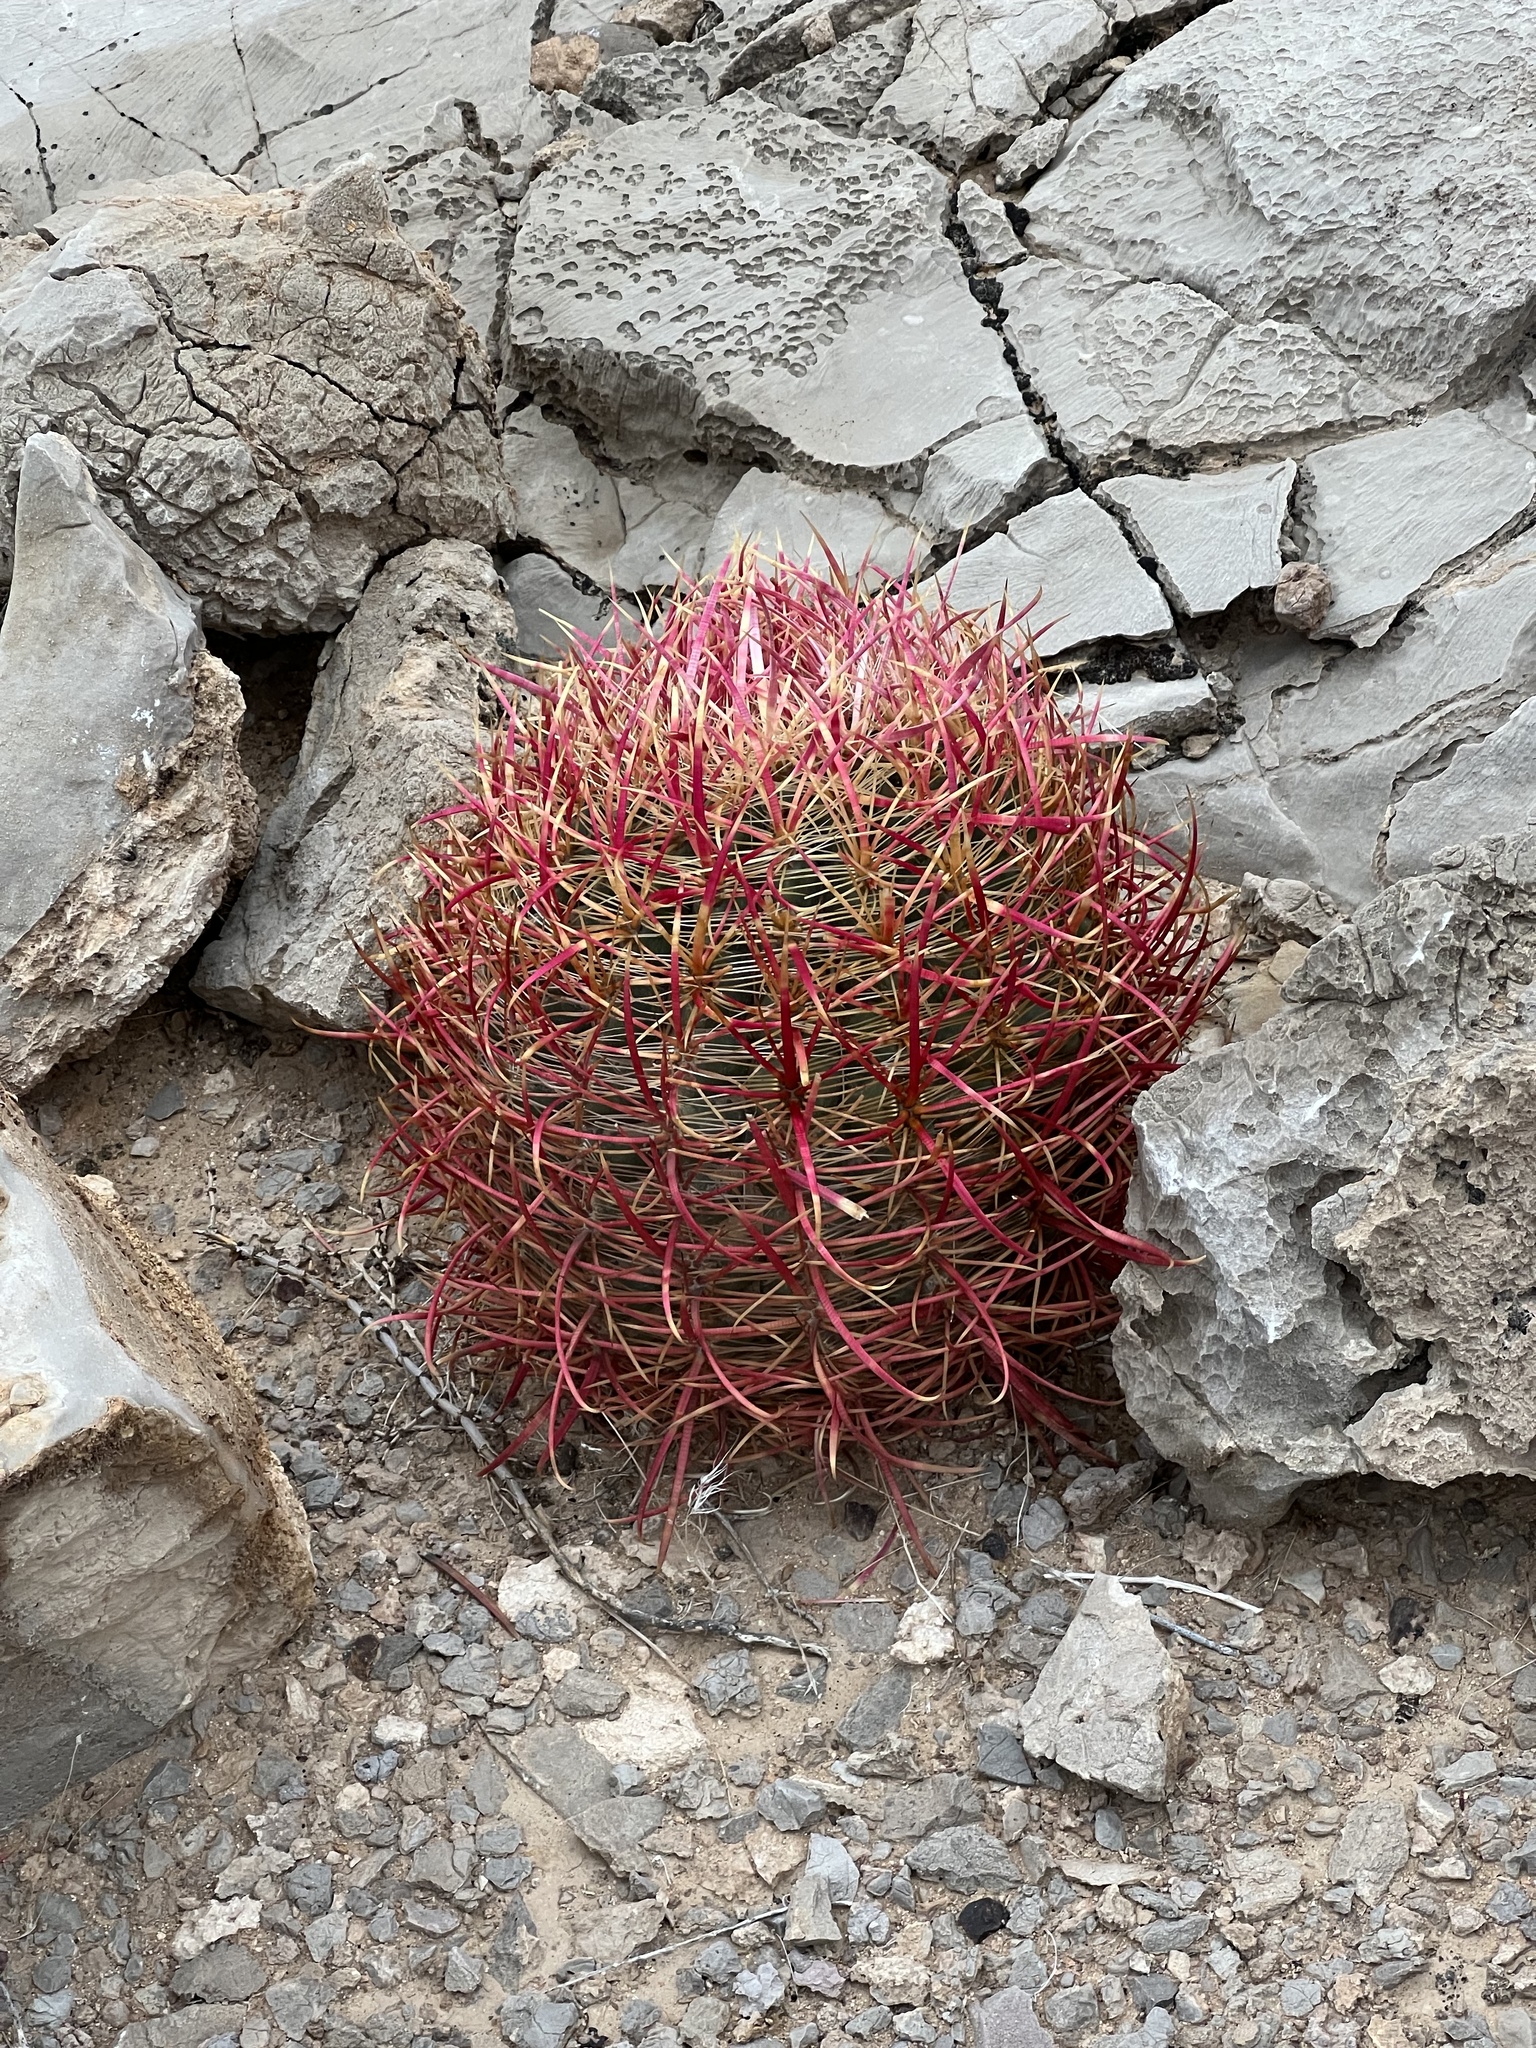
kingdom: Plantae
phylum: Tracheophyta
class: Magnoliopsida
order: Caryophyllales
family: Cactaceae
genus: Ferocactus
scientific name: Ferocactus cylindraceus
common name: California barrel cactus
